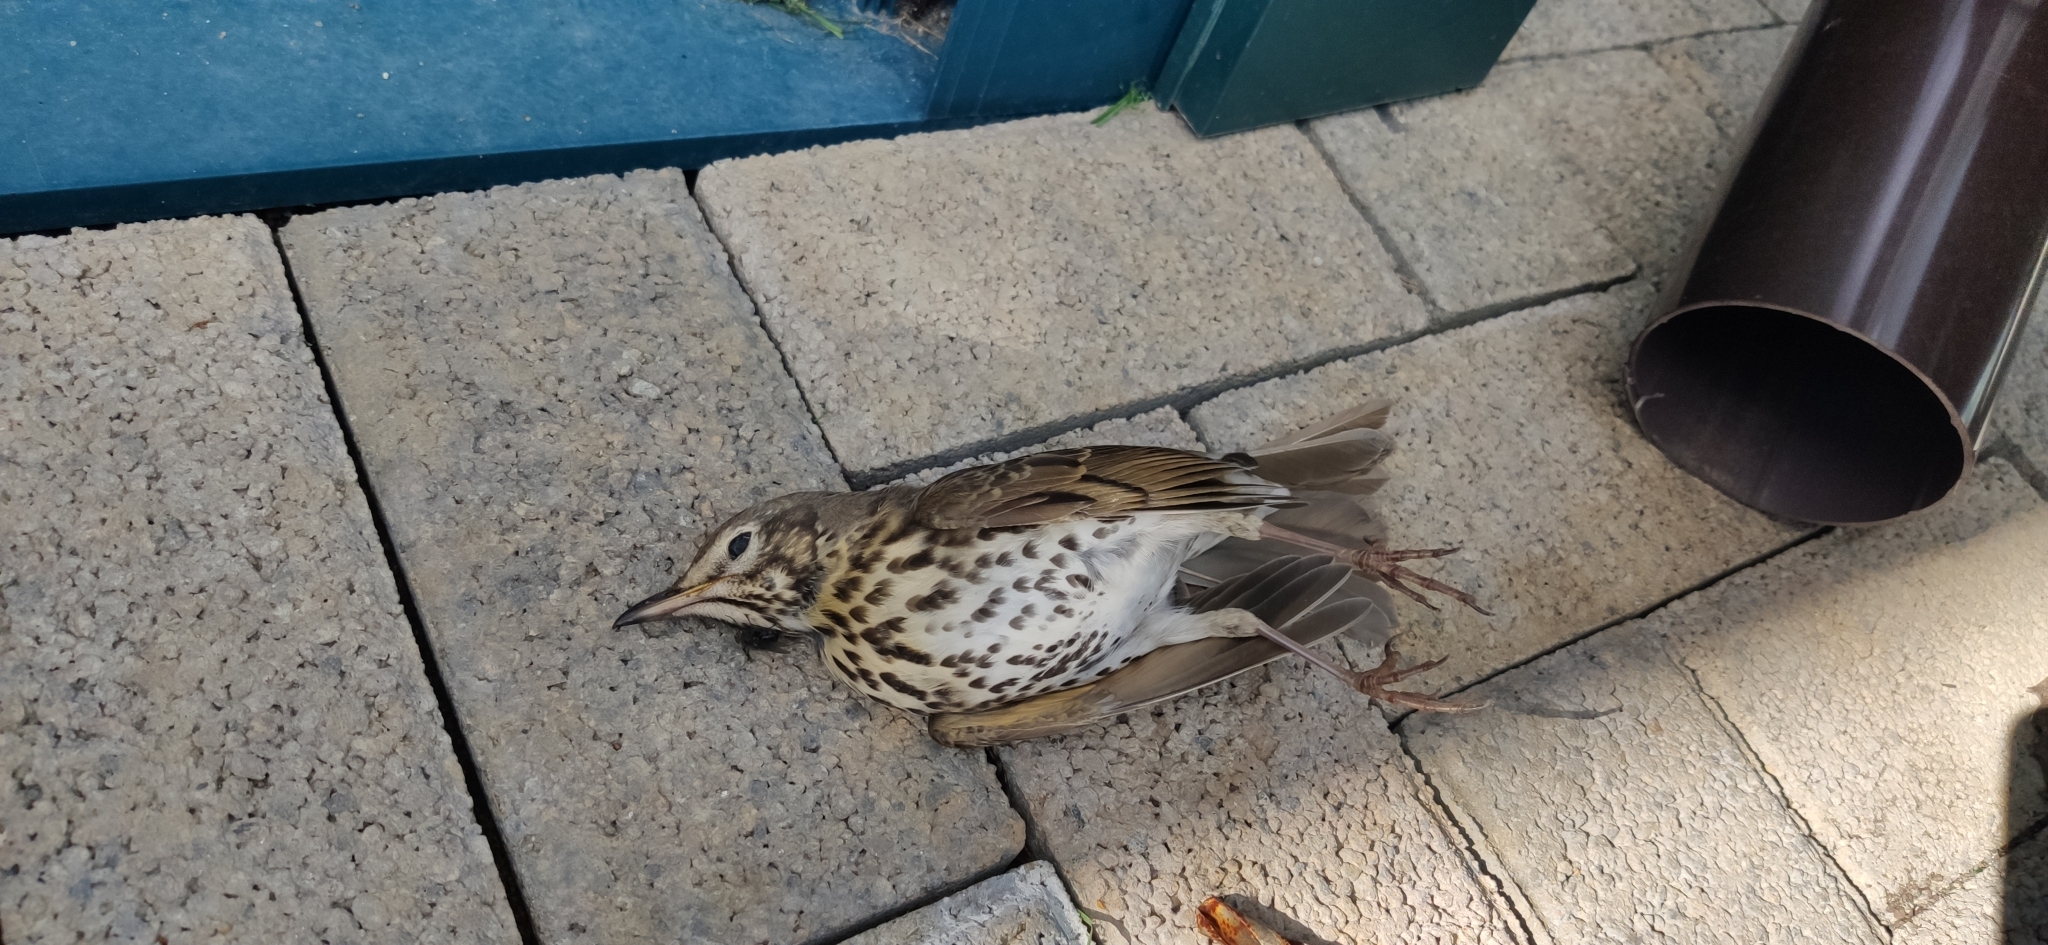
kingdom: Animalia
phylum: Chordata
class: Aves
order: Passeriformes
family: Turdidae
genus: Turdus
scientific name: Turdus philomelos
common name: Song thrush
